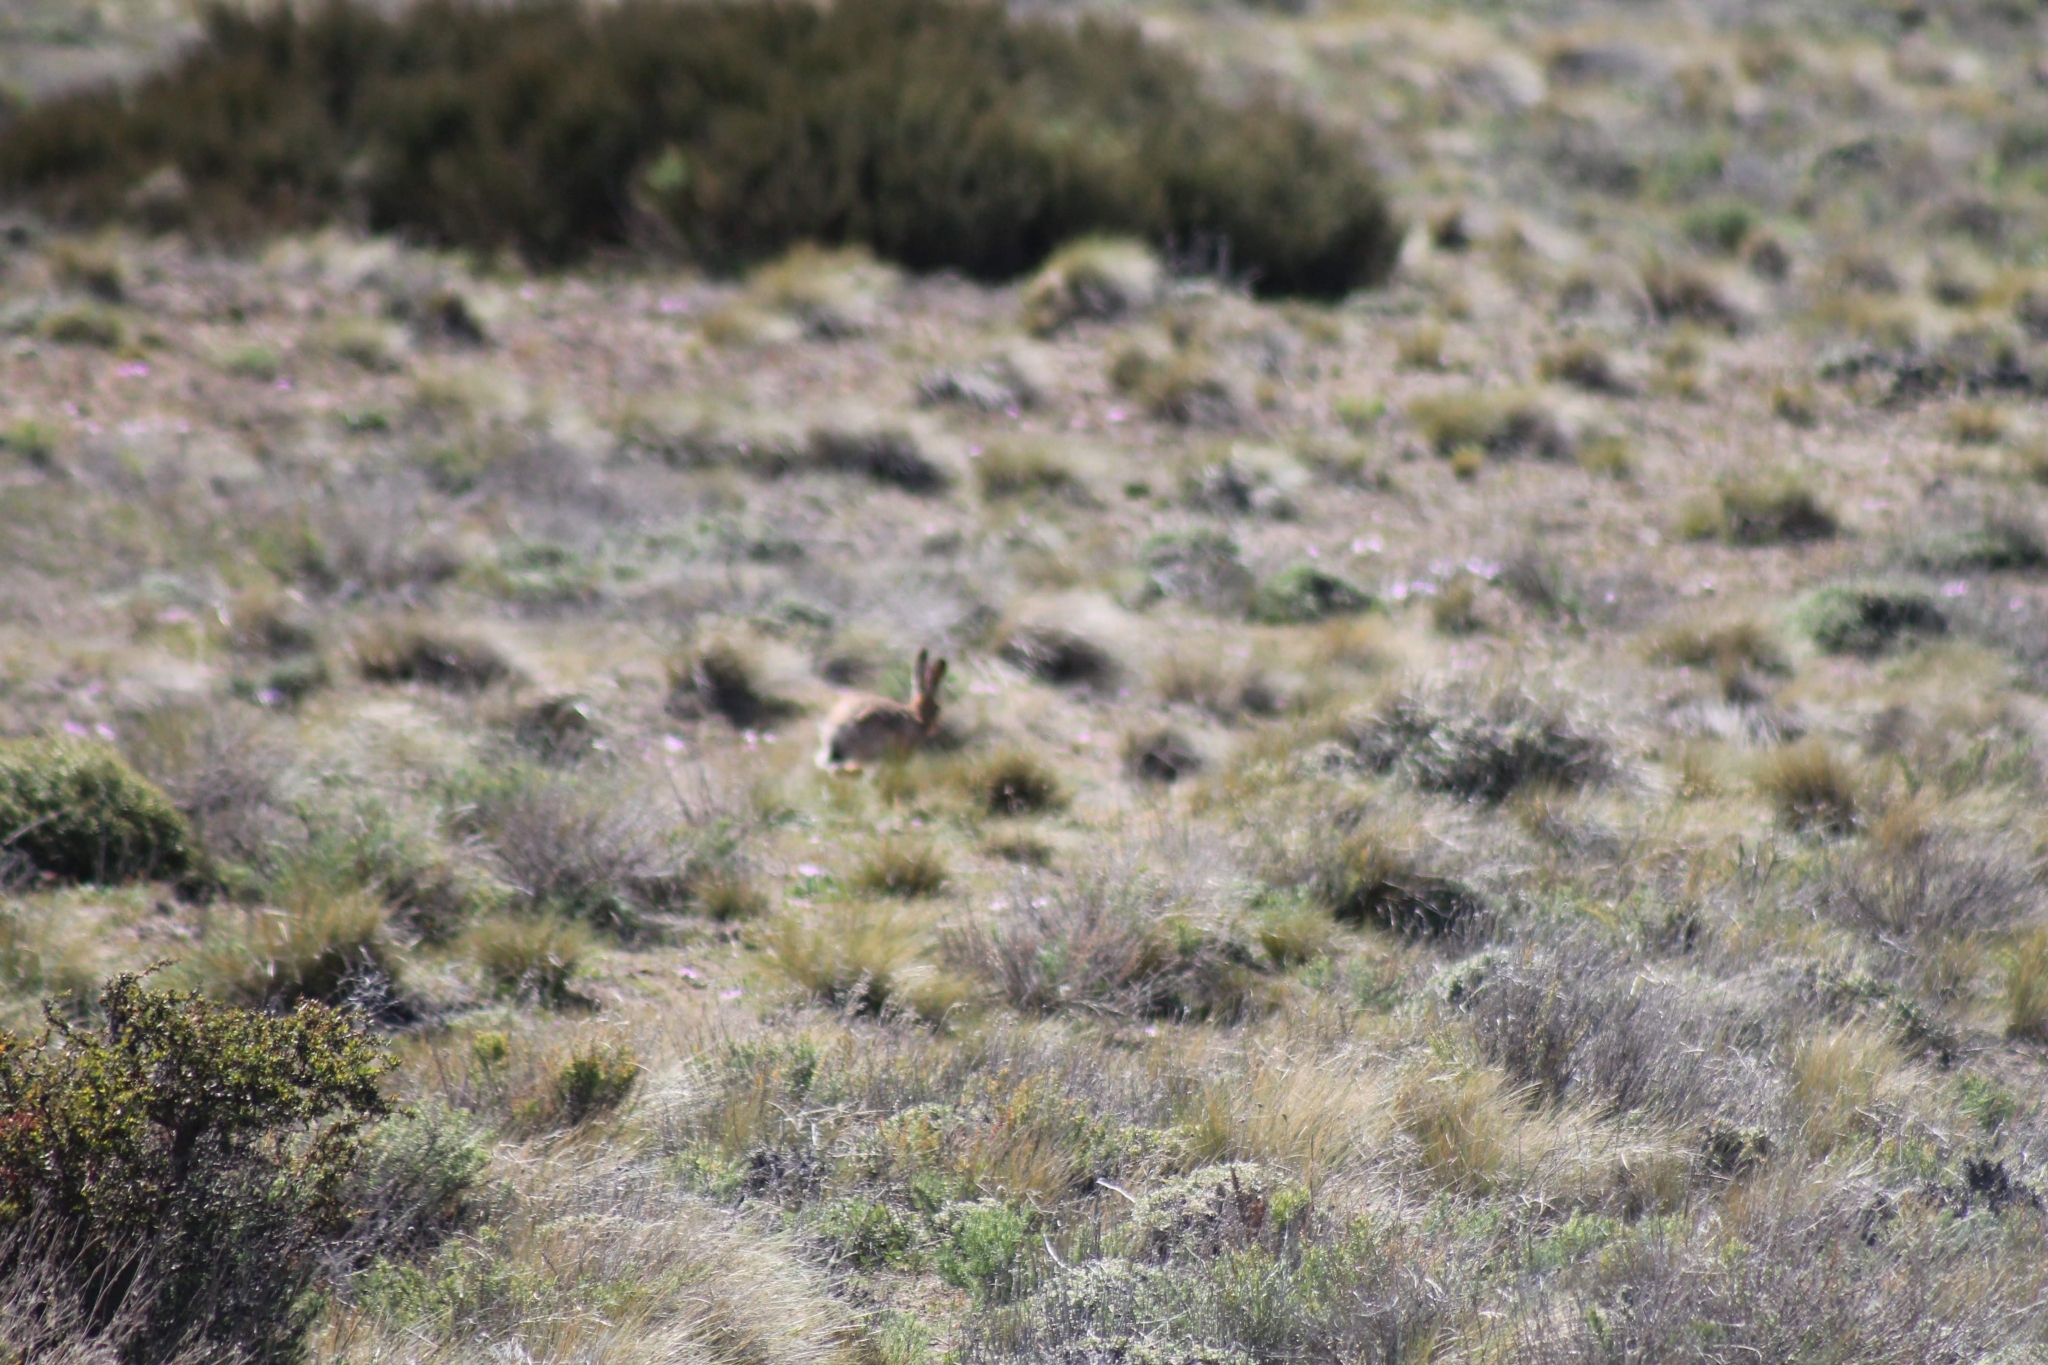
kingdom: Animalia
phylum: Chordata
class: Mammalia
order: Lagomorpha
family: Leporidae
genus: Lepus
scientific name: Lepus europaeus
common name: European hare
